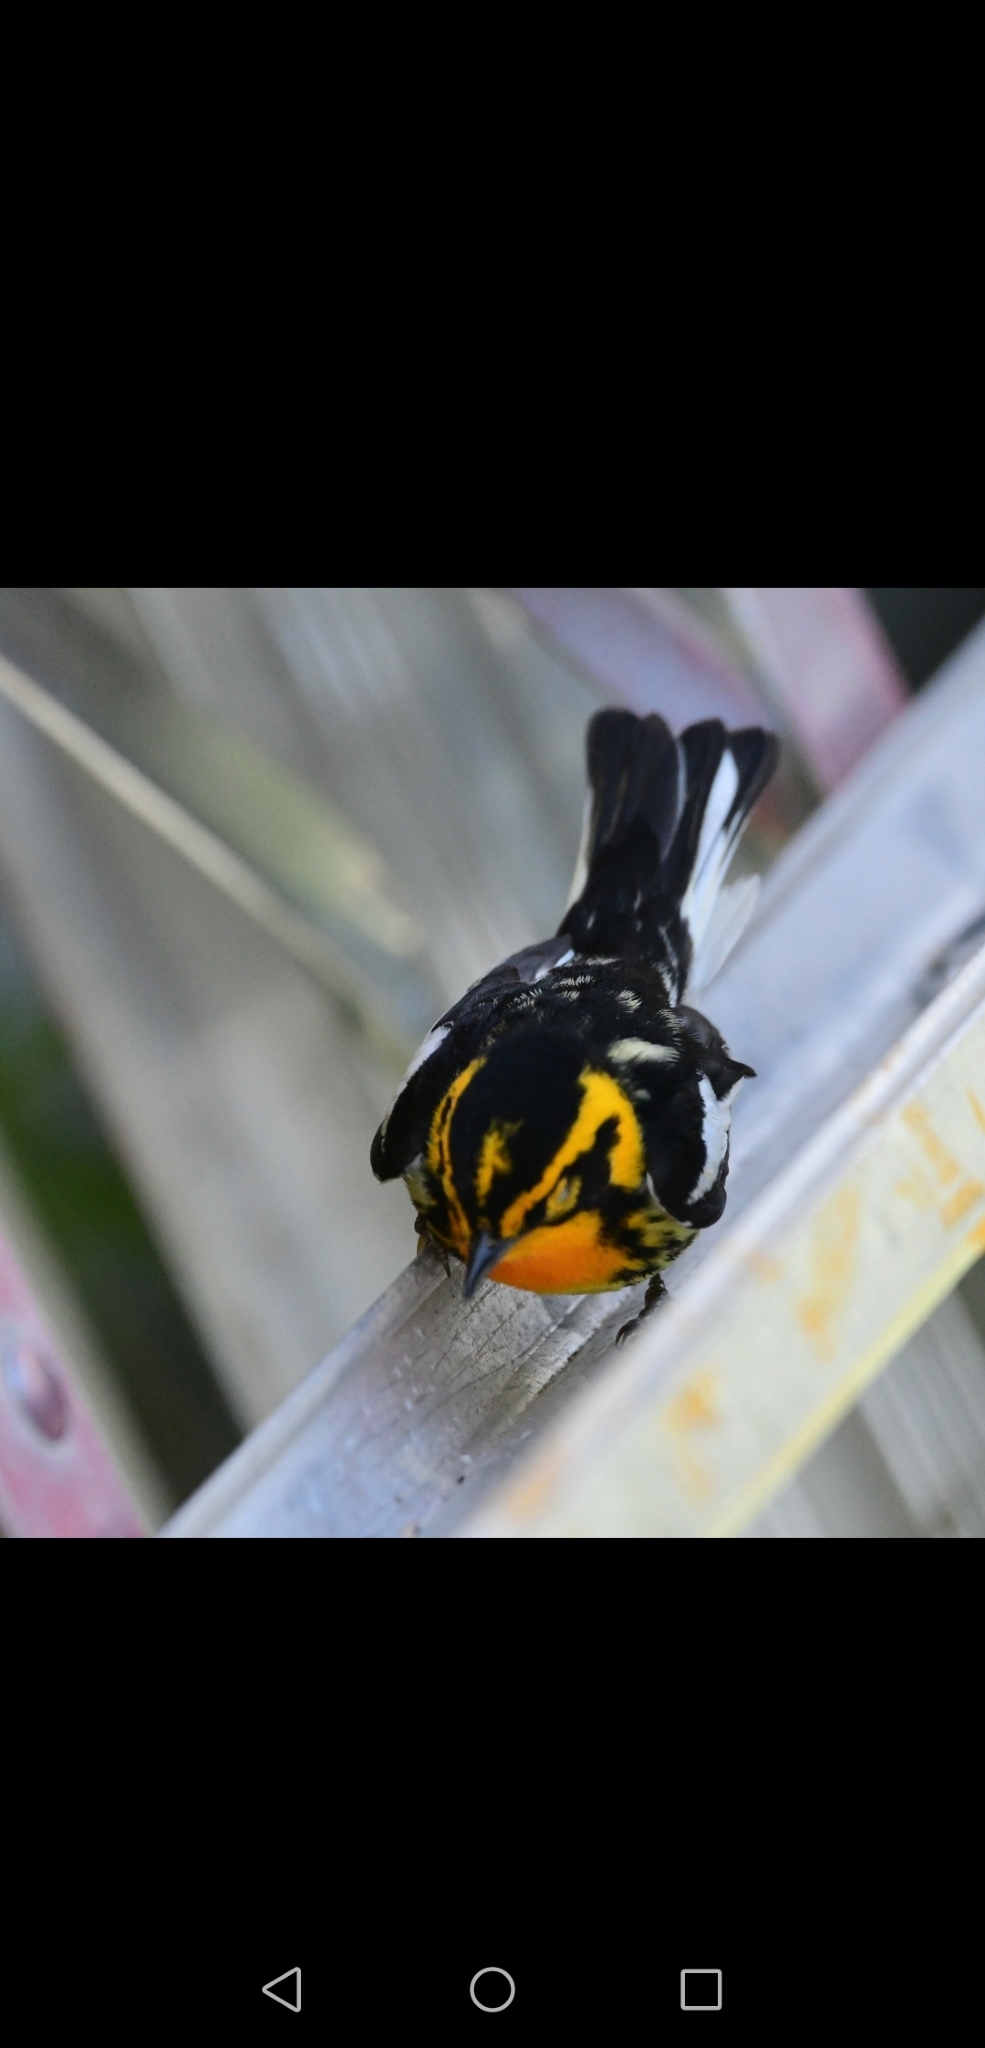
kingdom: Animalia
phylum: Chordata
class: Aves
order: Passeriformes
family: Parulidae
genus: Setophaga
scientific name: Setophaga fusca
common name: Blackburnian warbler
